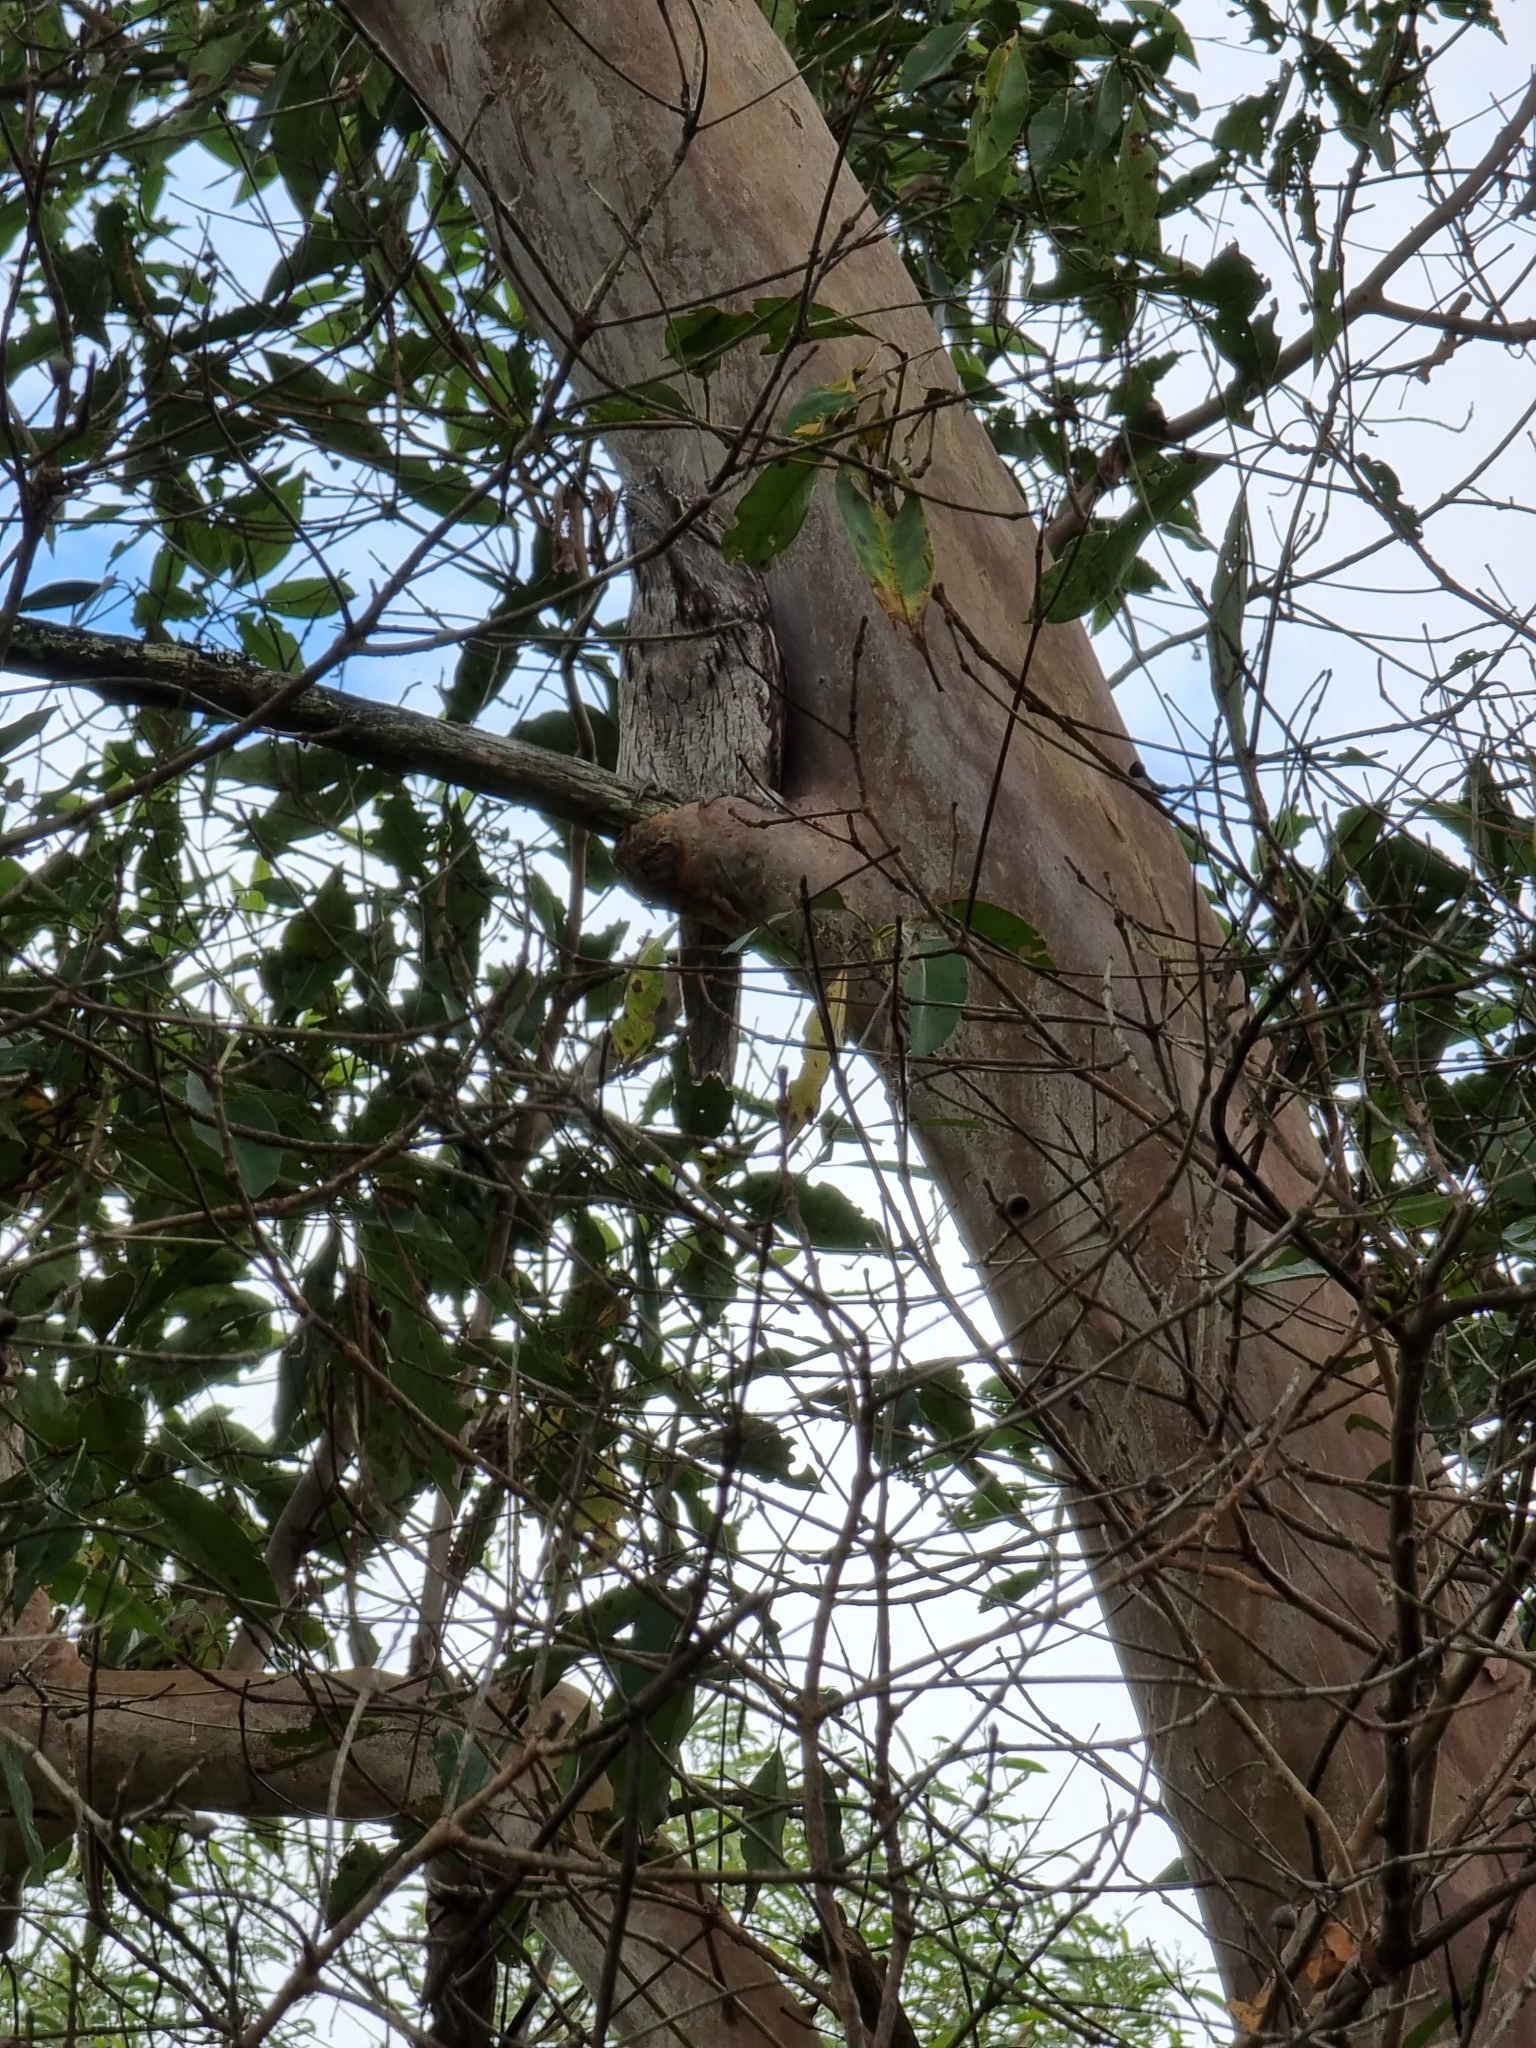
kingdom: Animalia
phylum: Chordata
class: Aves
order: Caprimulgiformes
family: Podargidae
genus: Podargus
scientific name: Podargus strigoides
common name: Tawny frogmouth
